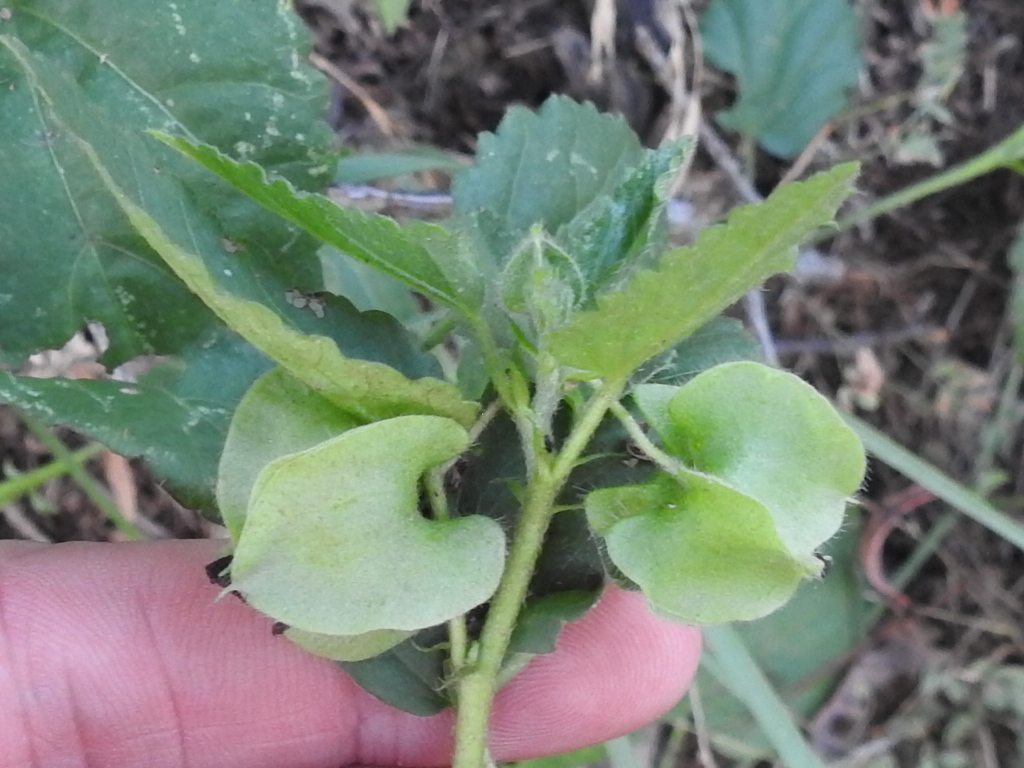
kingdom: Plantae
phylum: Tracheophyta
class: Magnoliopsida
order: Malvales
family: Malvaceae
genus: Rhynchosida
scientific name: Rhynchosida physocalyx
